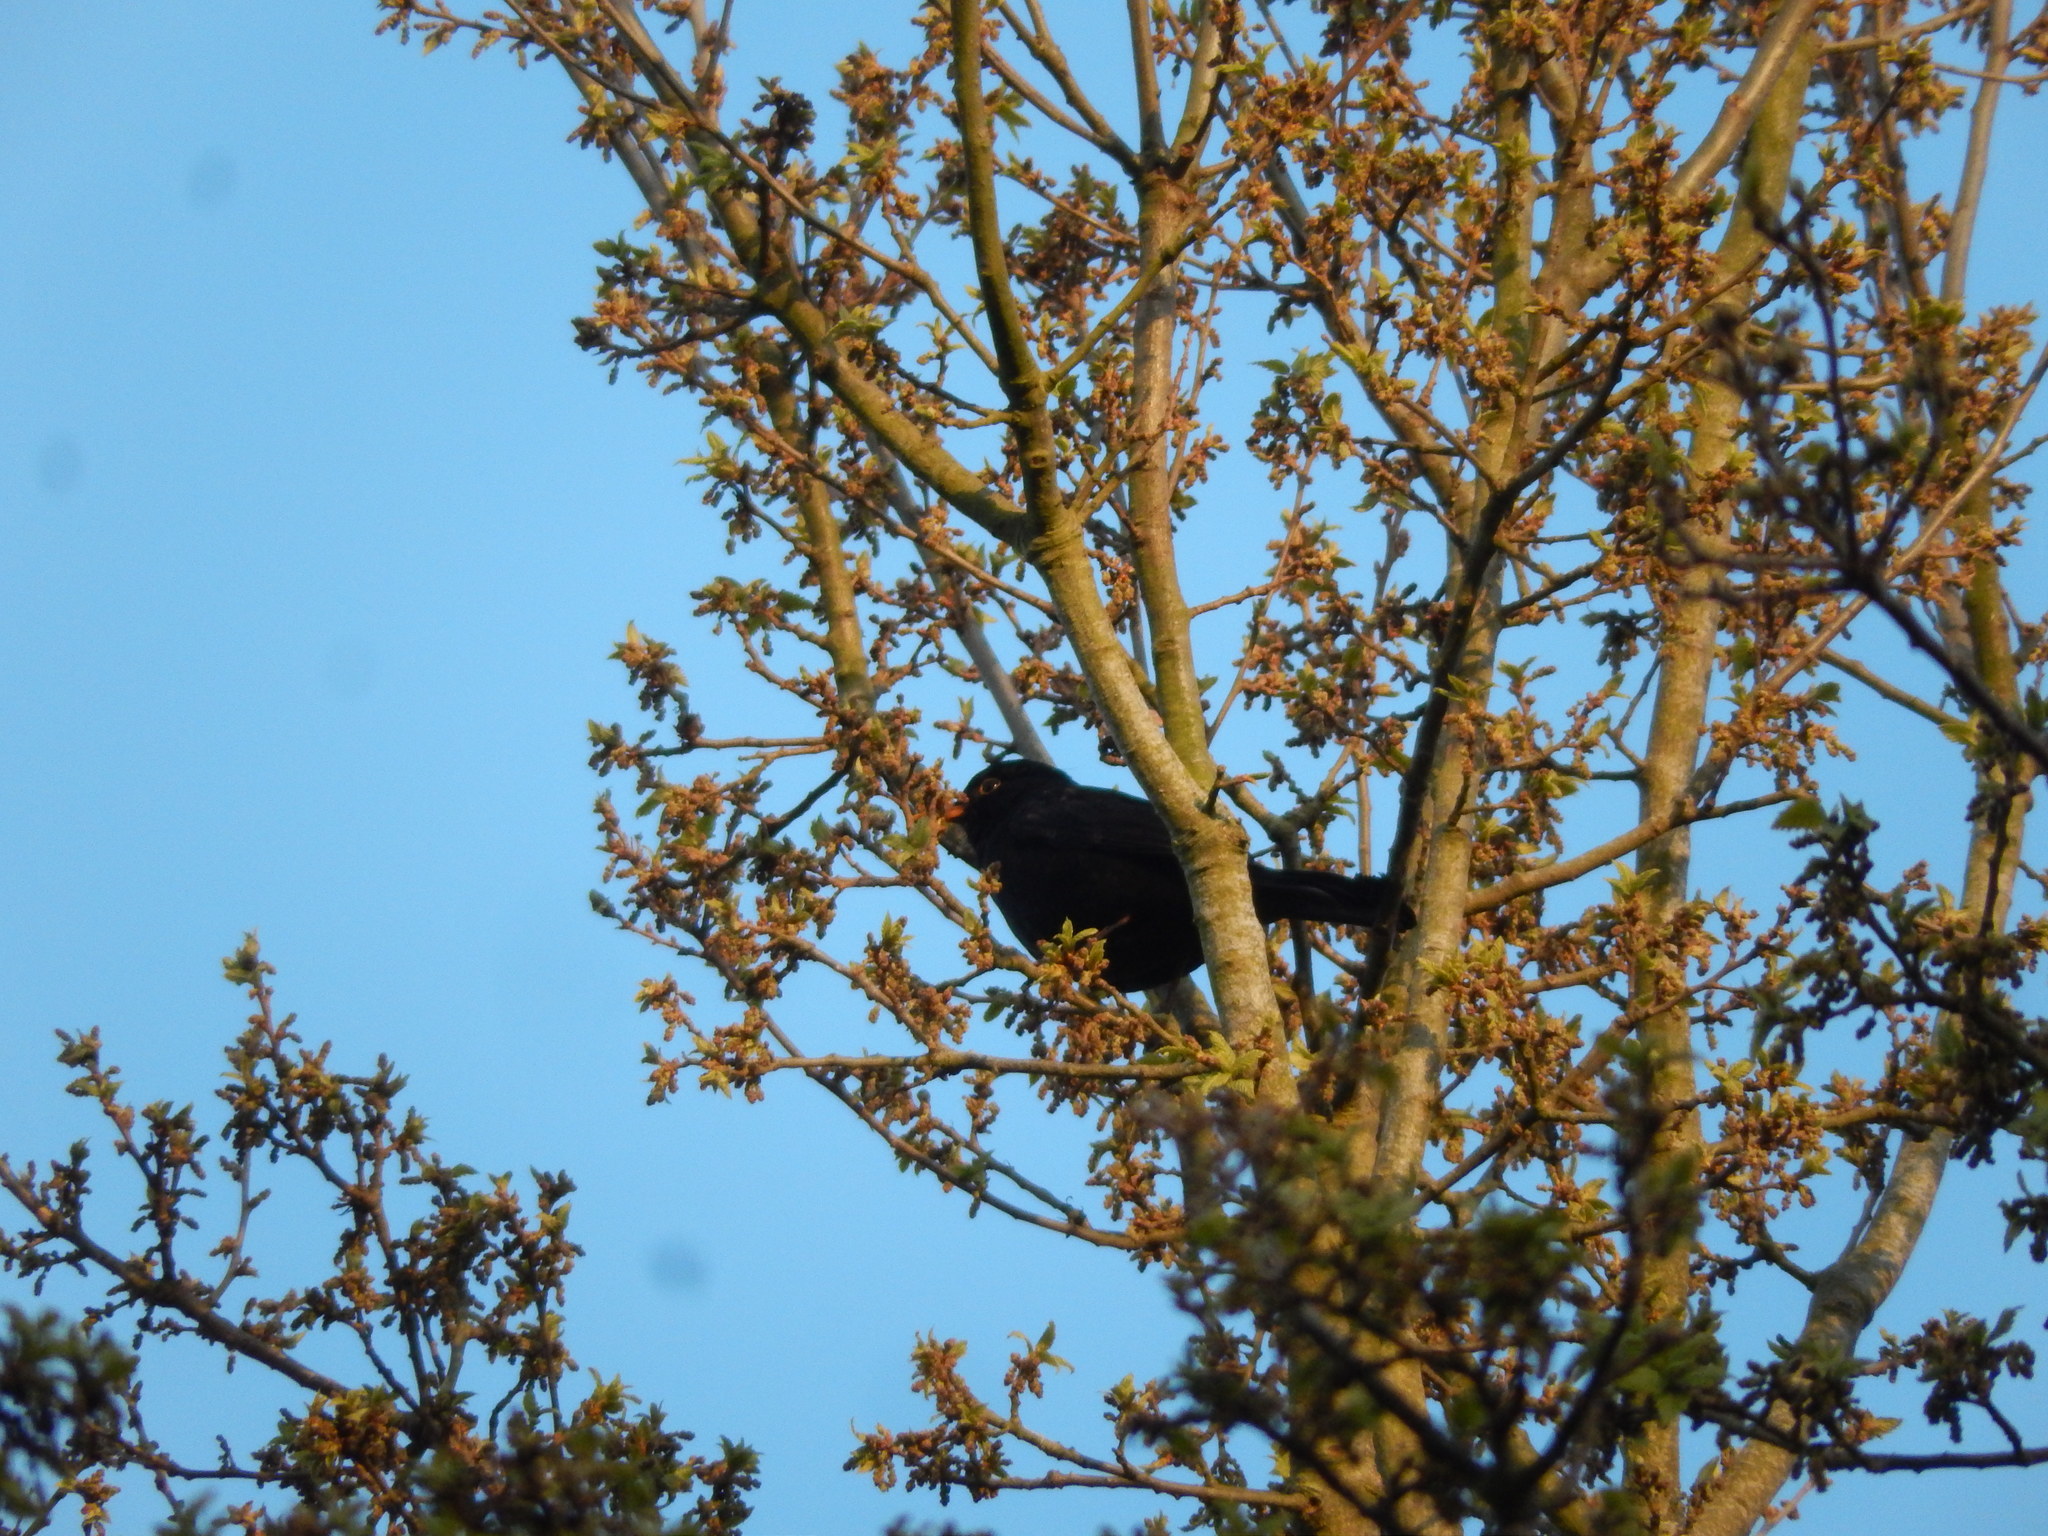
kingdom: Animalia
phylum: Chordata
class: Aves
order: Passeriformes
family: Turdidae
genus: Turdus
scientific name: Turdus merula
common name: Common blackbird
